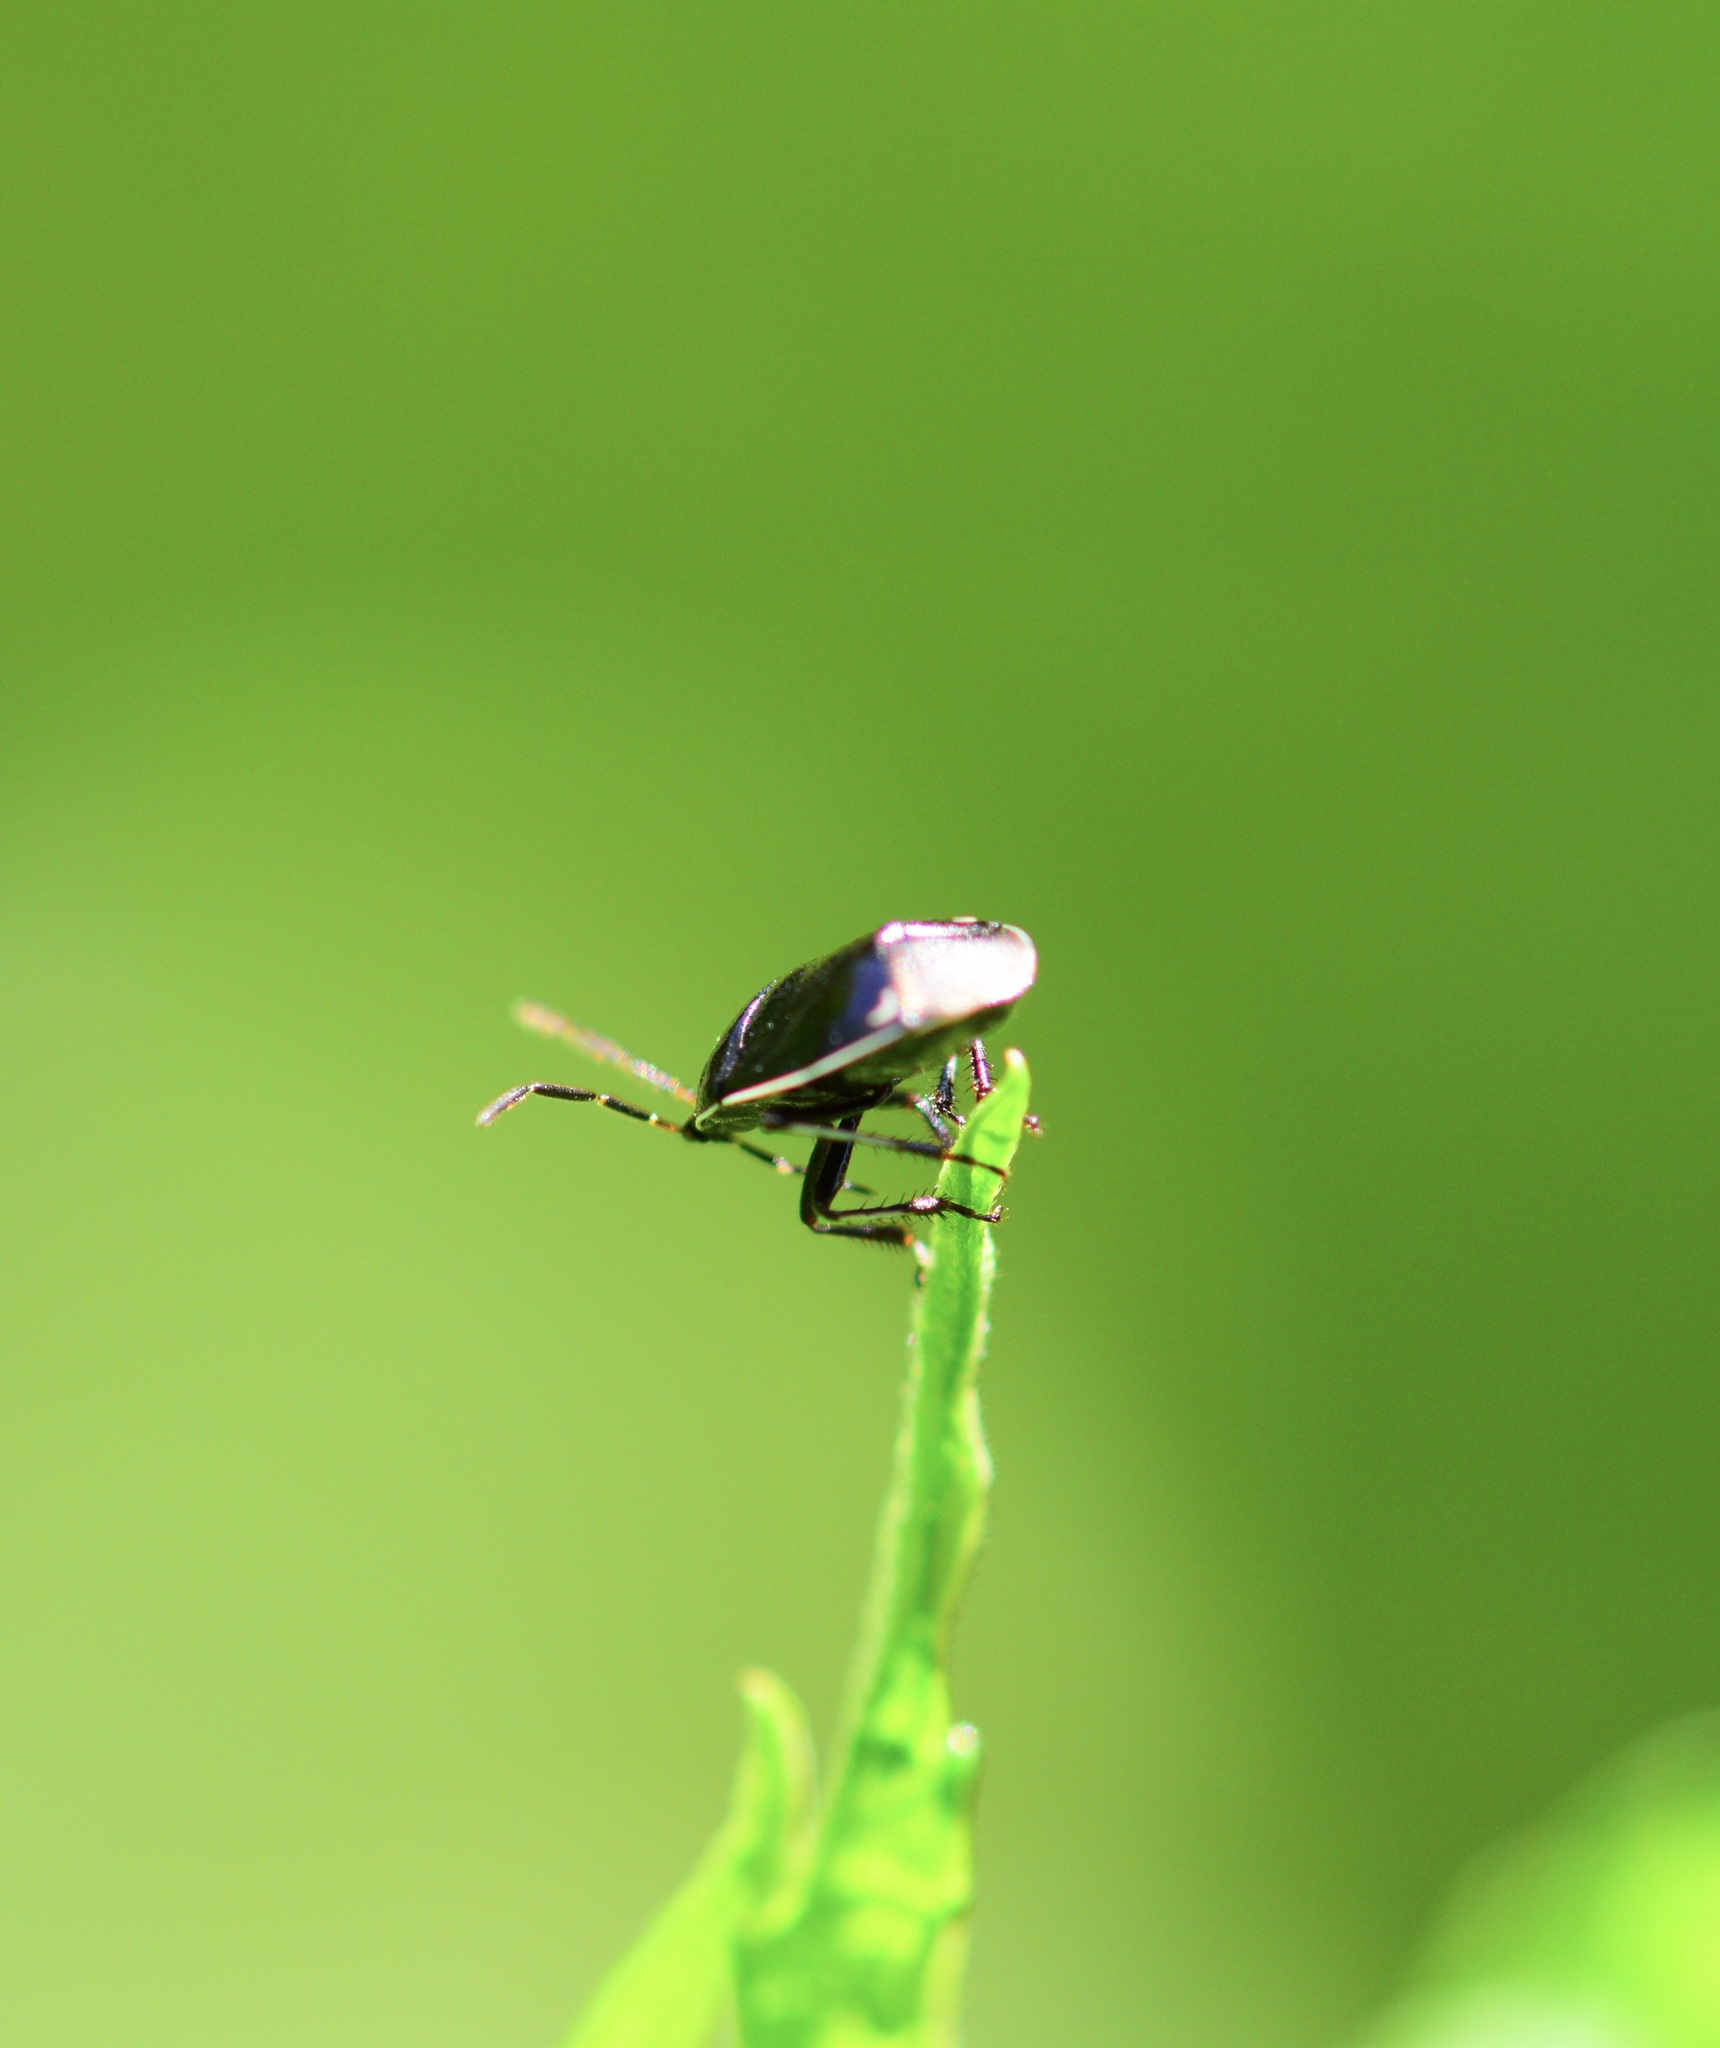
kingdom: Animalia
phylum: Arthropoda
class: Insecta
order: Hemiptera
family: Cydnidae
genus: Sehirus
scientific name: Sehirus cinctus
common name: White-margined burrower bug
